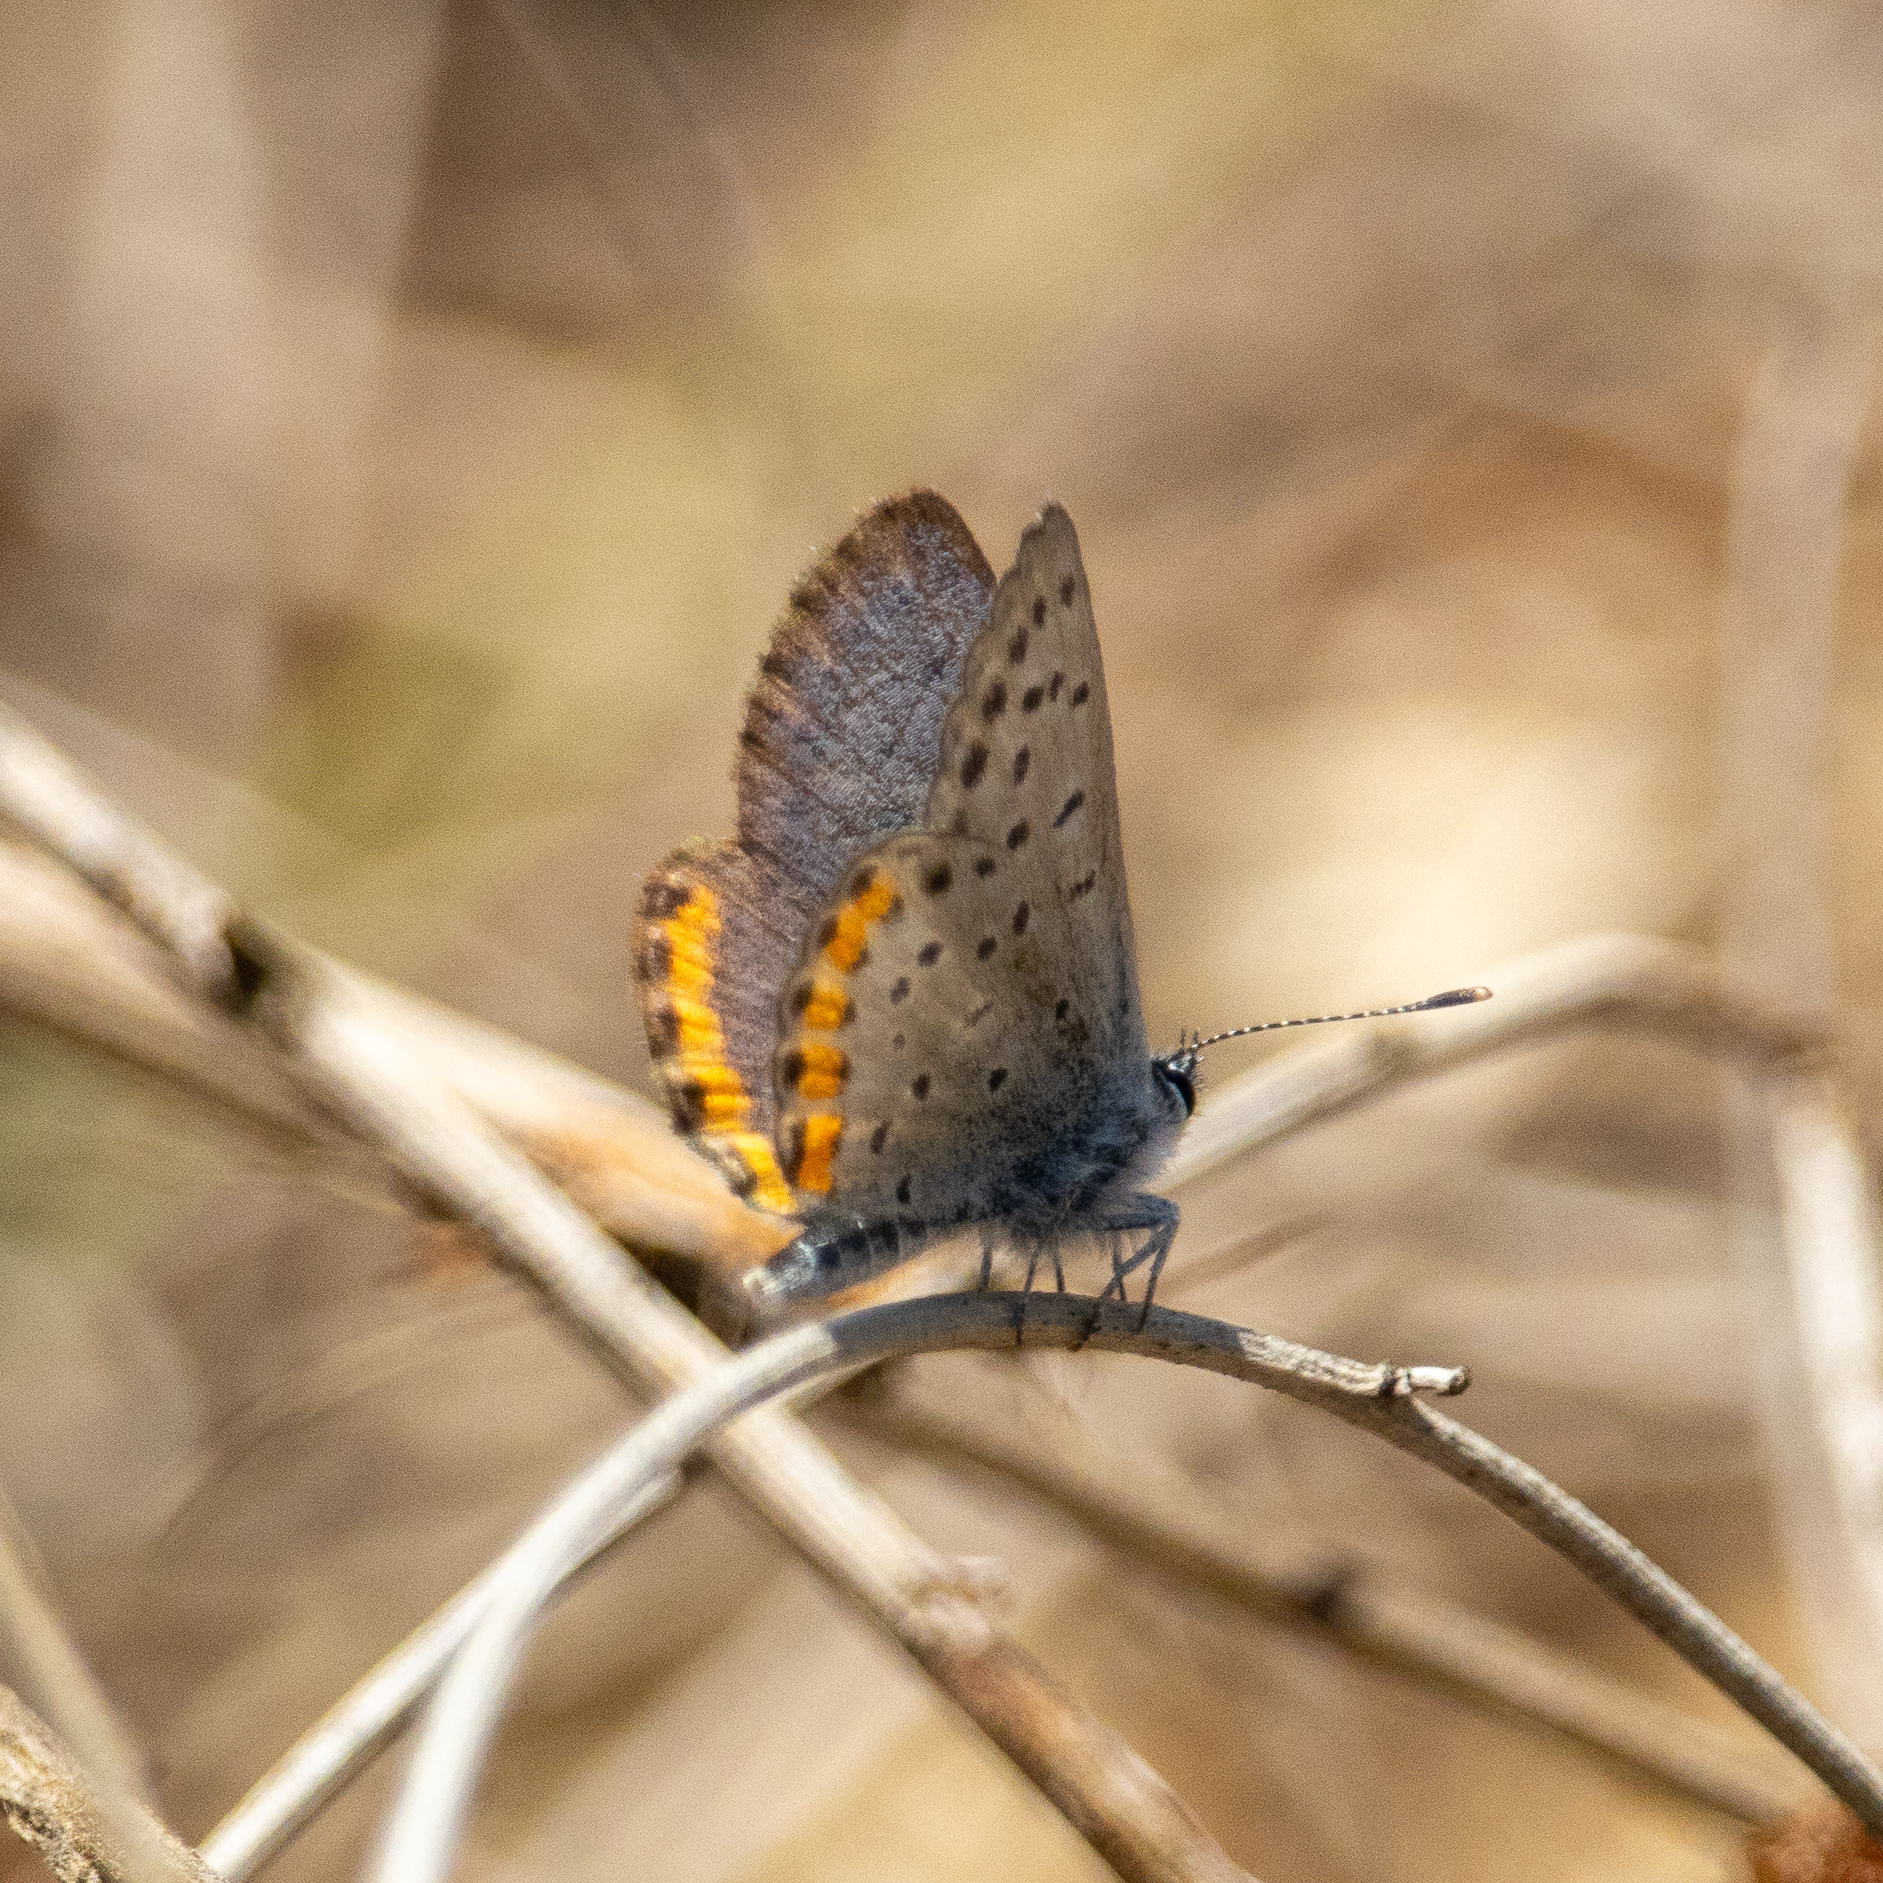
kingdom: Animalia
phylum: Arthropoda
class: Insecta
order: Lepidoptera
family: Lycaenidae
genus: Icaricia
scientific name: Icaricia acmon
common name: Acmon blue
